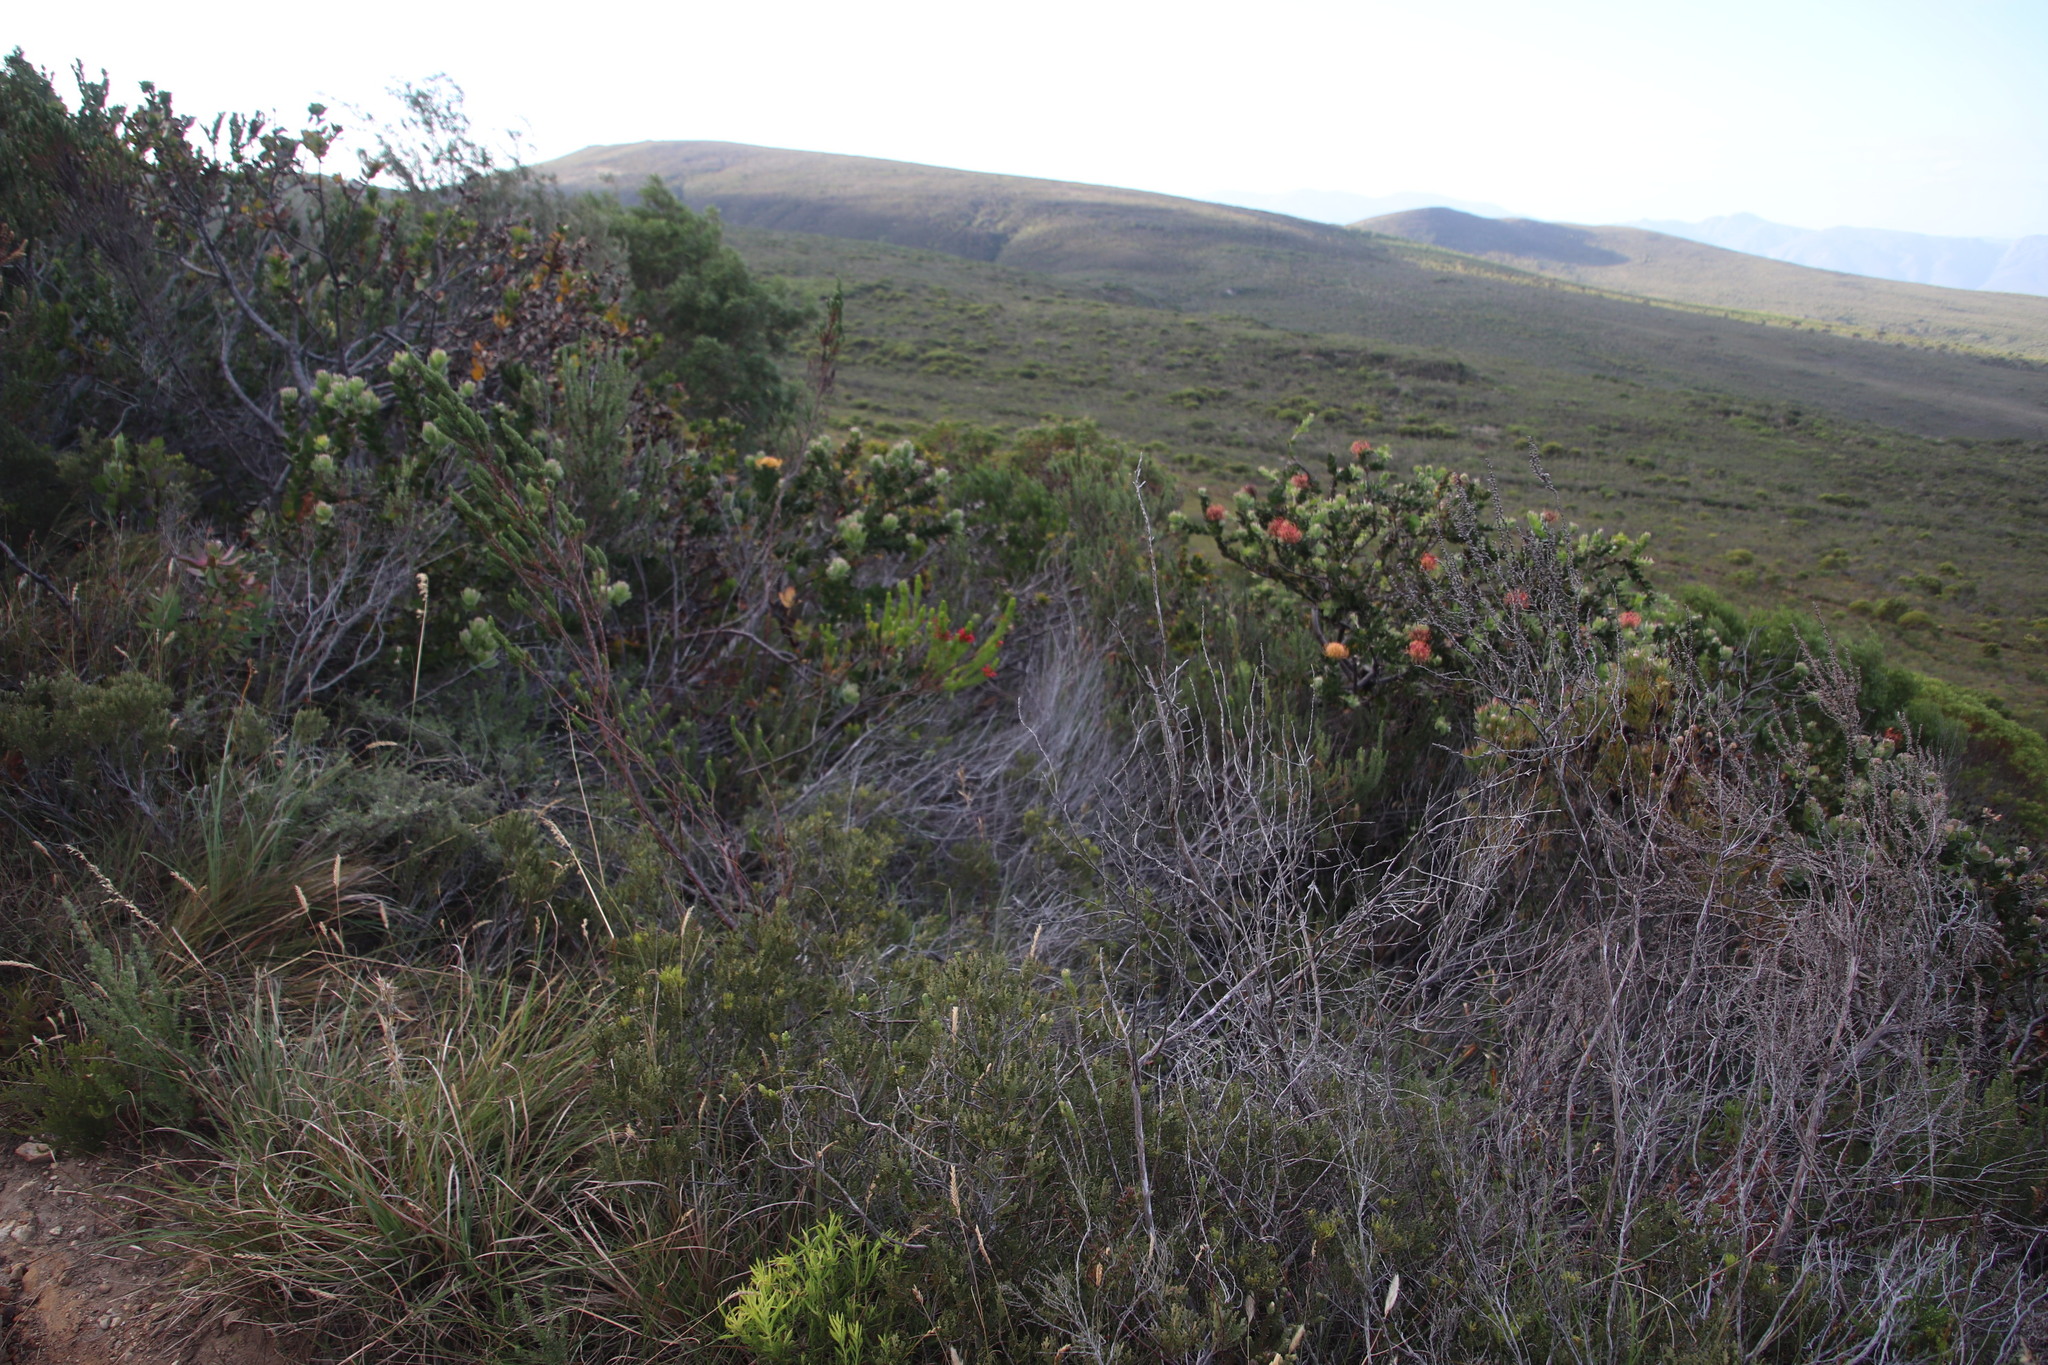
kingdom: Plantae
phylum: Tracheophyta
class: Magnoliopsida
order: Proteales
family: Proteaceae
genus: Leucospermum
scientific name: Leucospermum patersonii
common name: False tree pincushion
